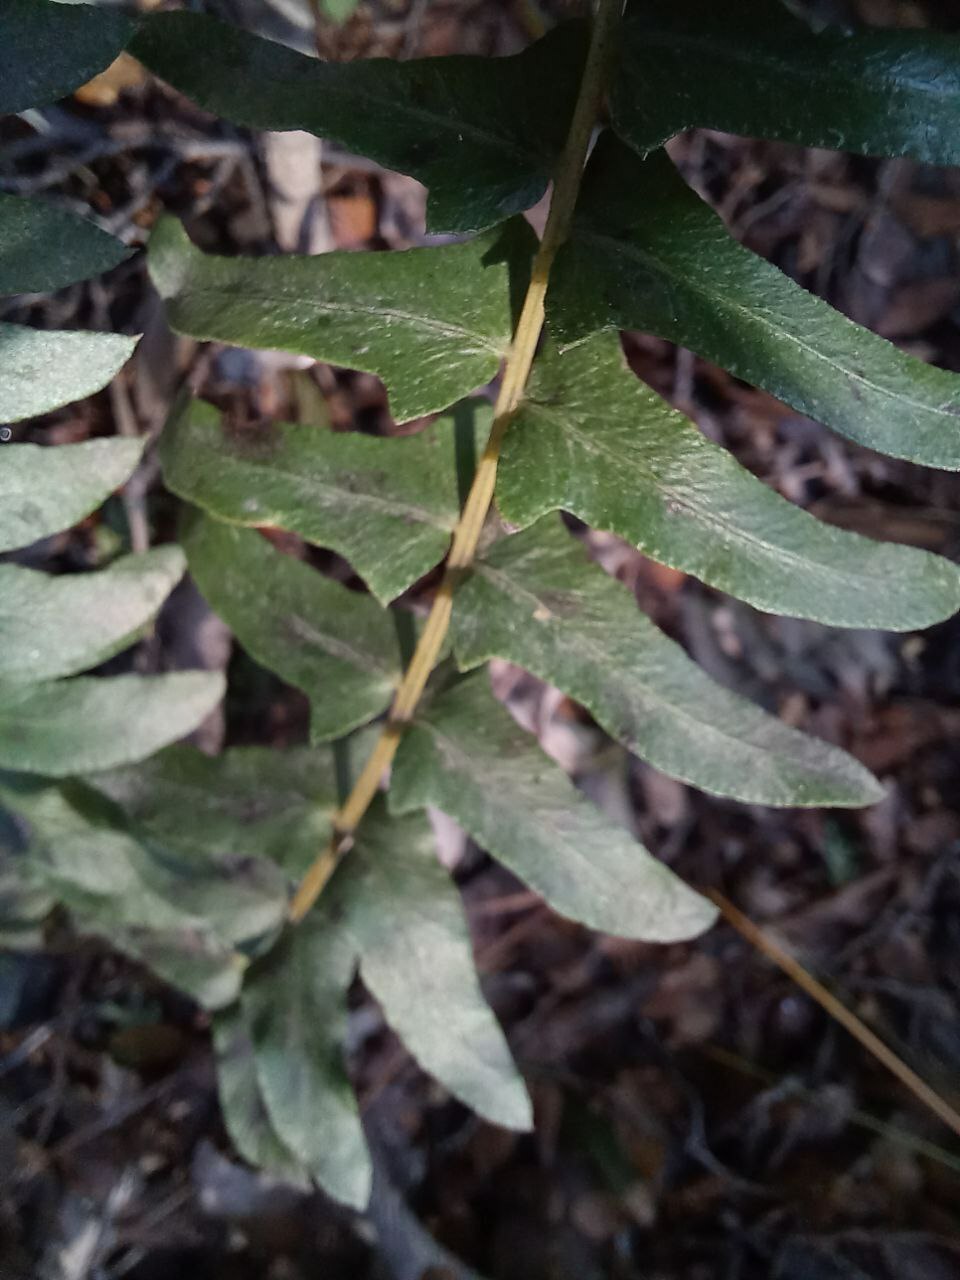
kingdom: Plantae
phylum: Tracheophyta
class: Polypodiopsida
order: Polypodiales
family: Blechnaceae
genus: Blechnum
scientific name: Blechnum hastatum
